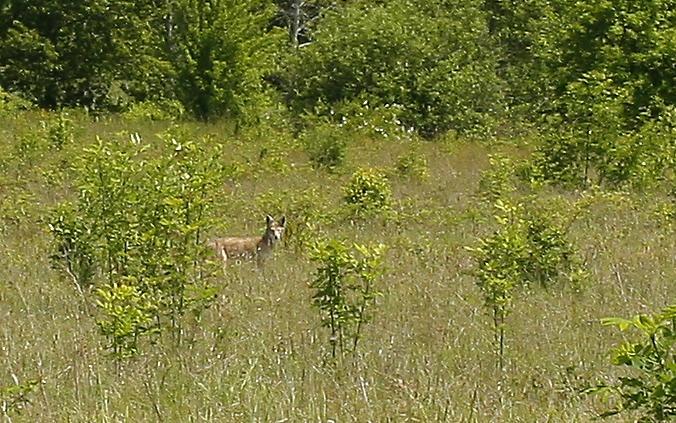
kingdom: Animalia
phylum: Chordata
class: Mammalia
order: Carnivora
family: Canidae
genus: Canis
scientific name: Canis latrans
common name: Coyote
